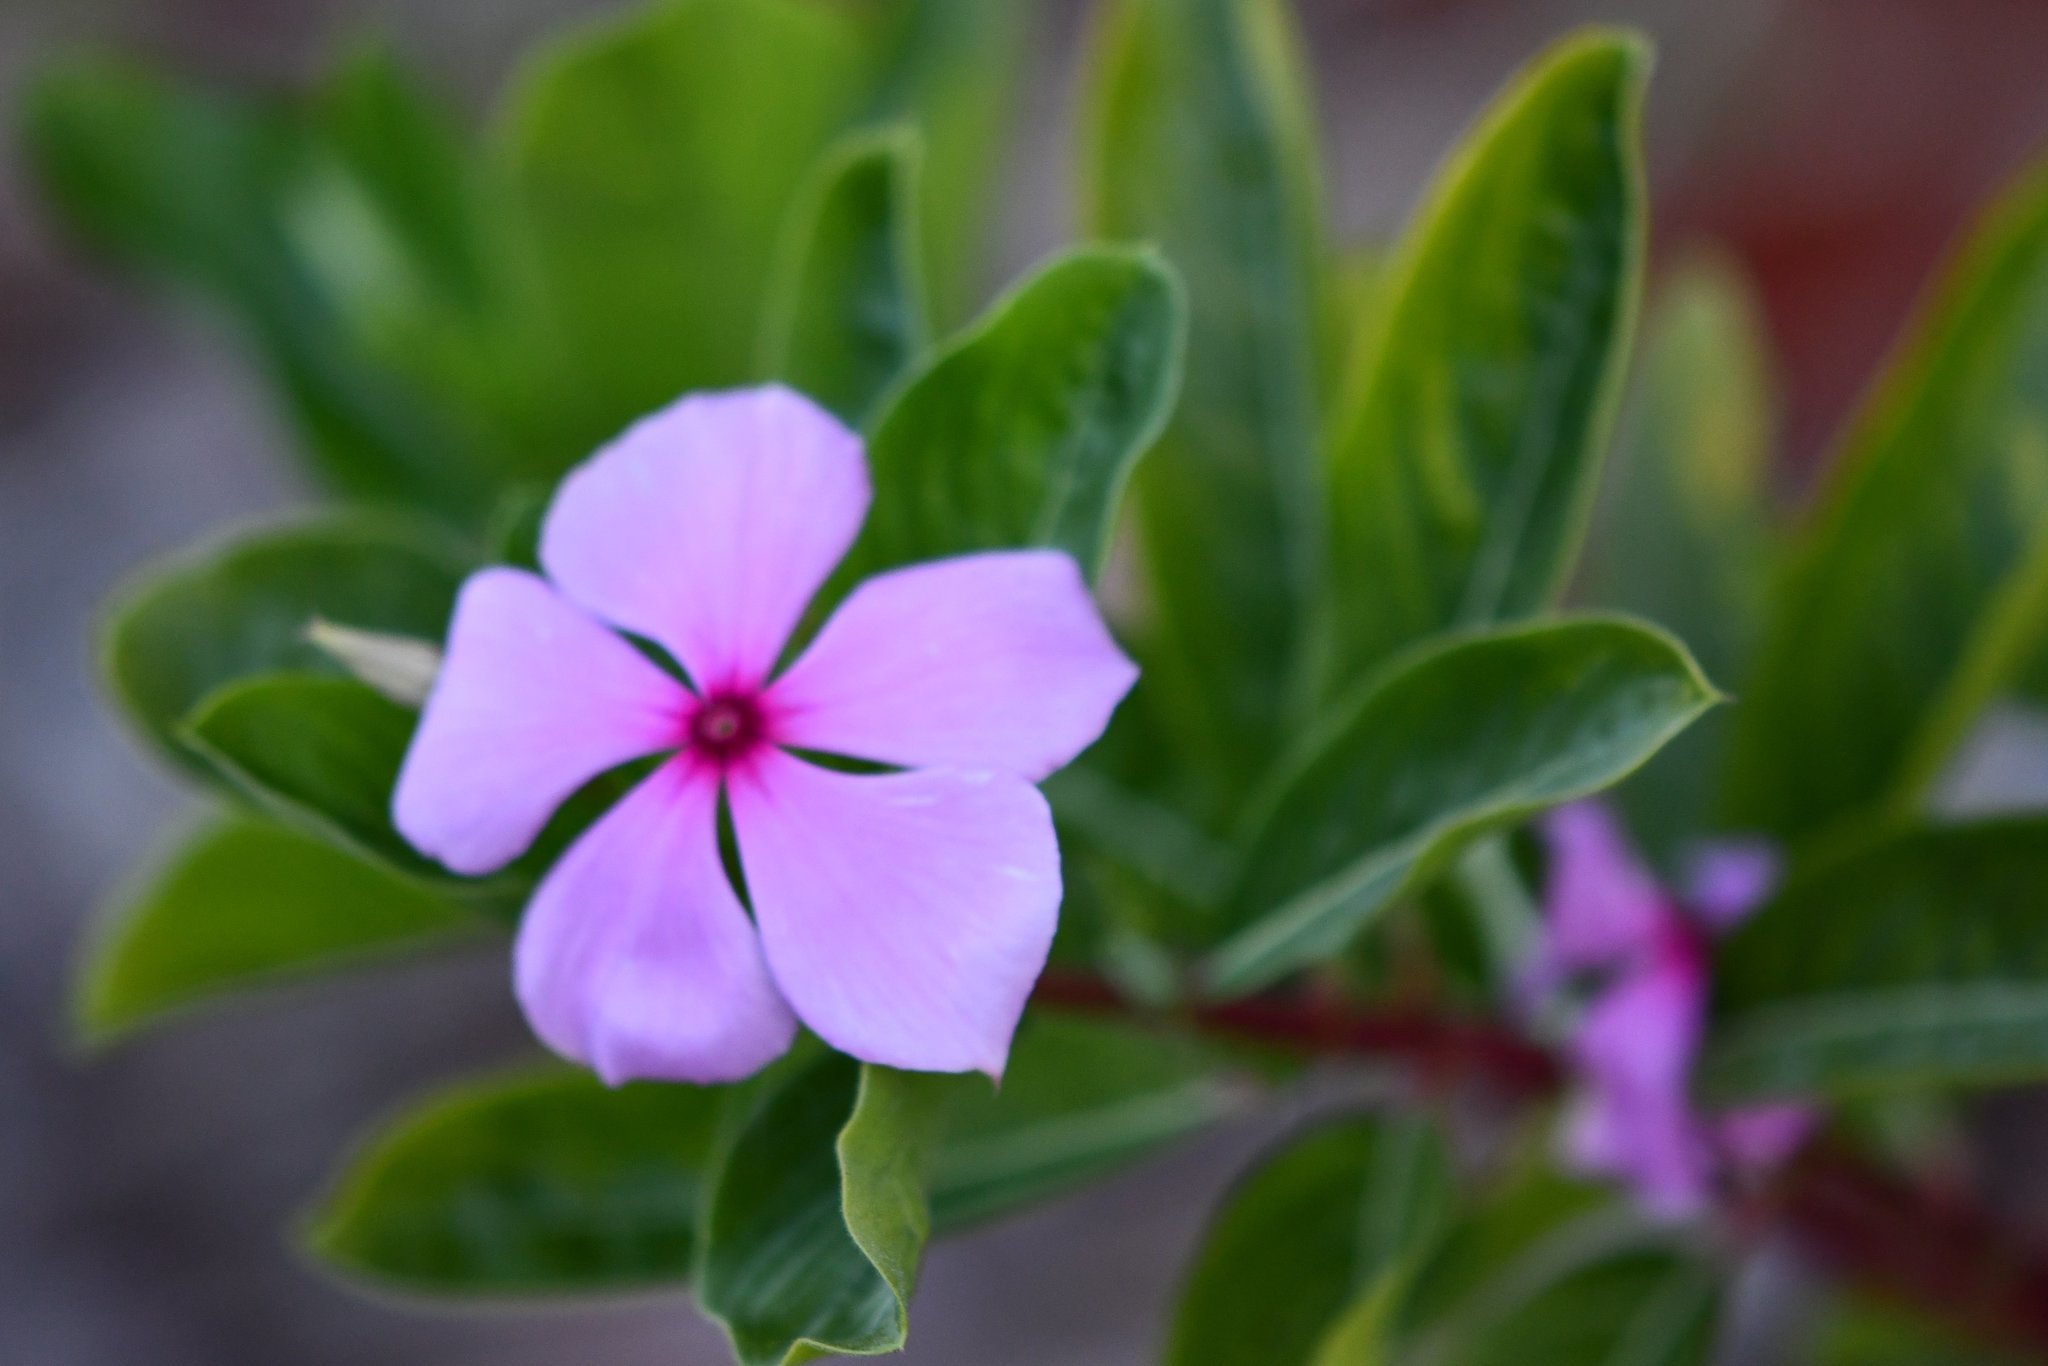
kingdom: Plantae
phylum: Tracheophyta
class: Magnoliopsida
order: Gentianales
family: Apocynaceae
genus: Catharanthus
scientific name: Catharanthus roseus
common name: Madagascar periwinkle
